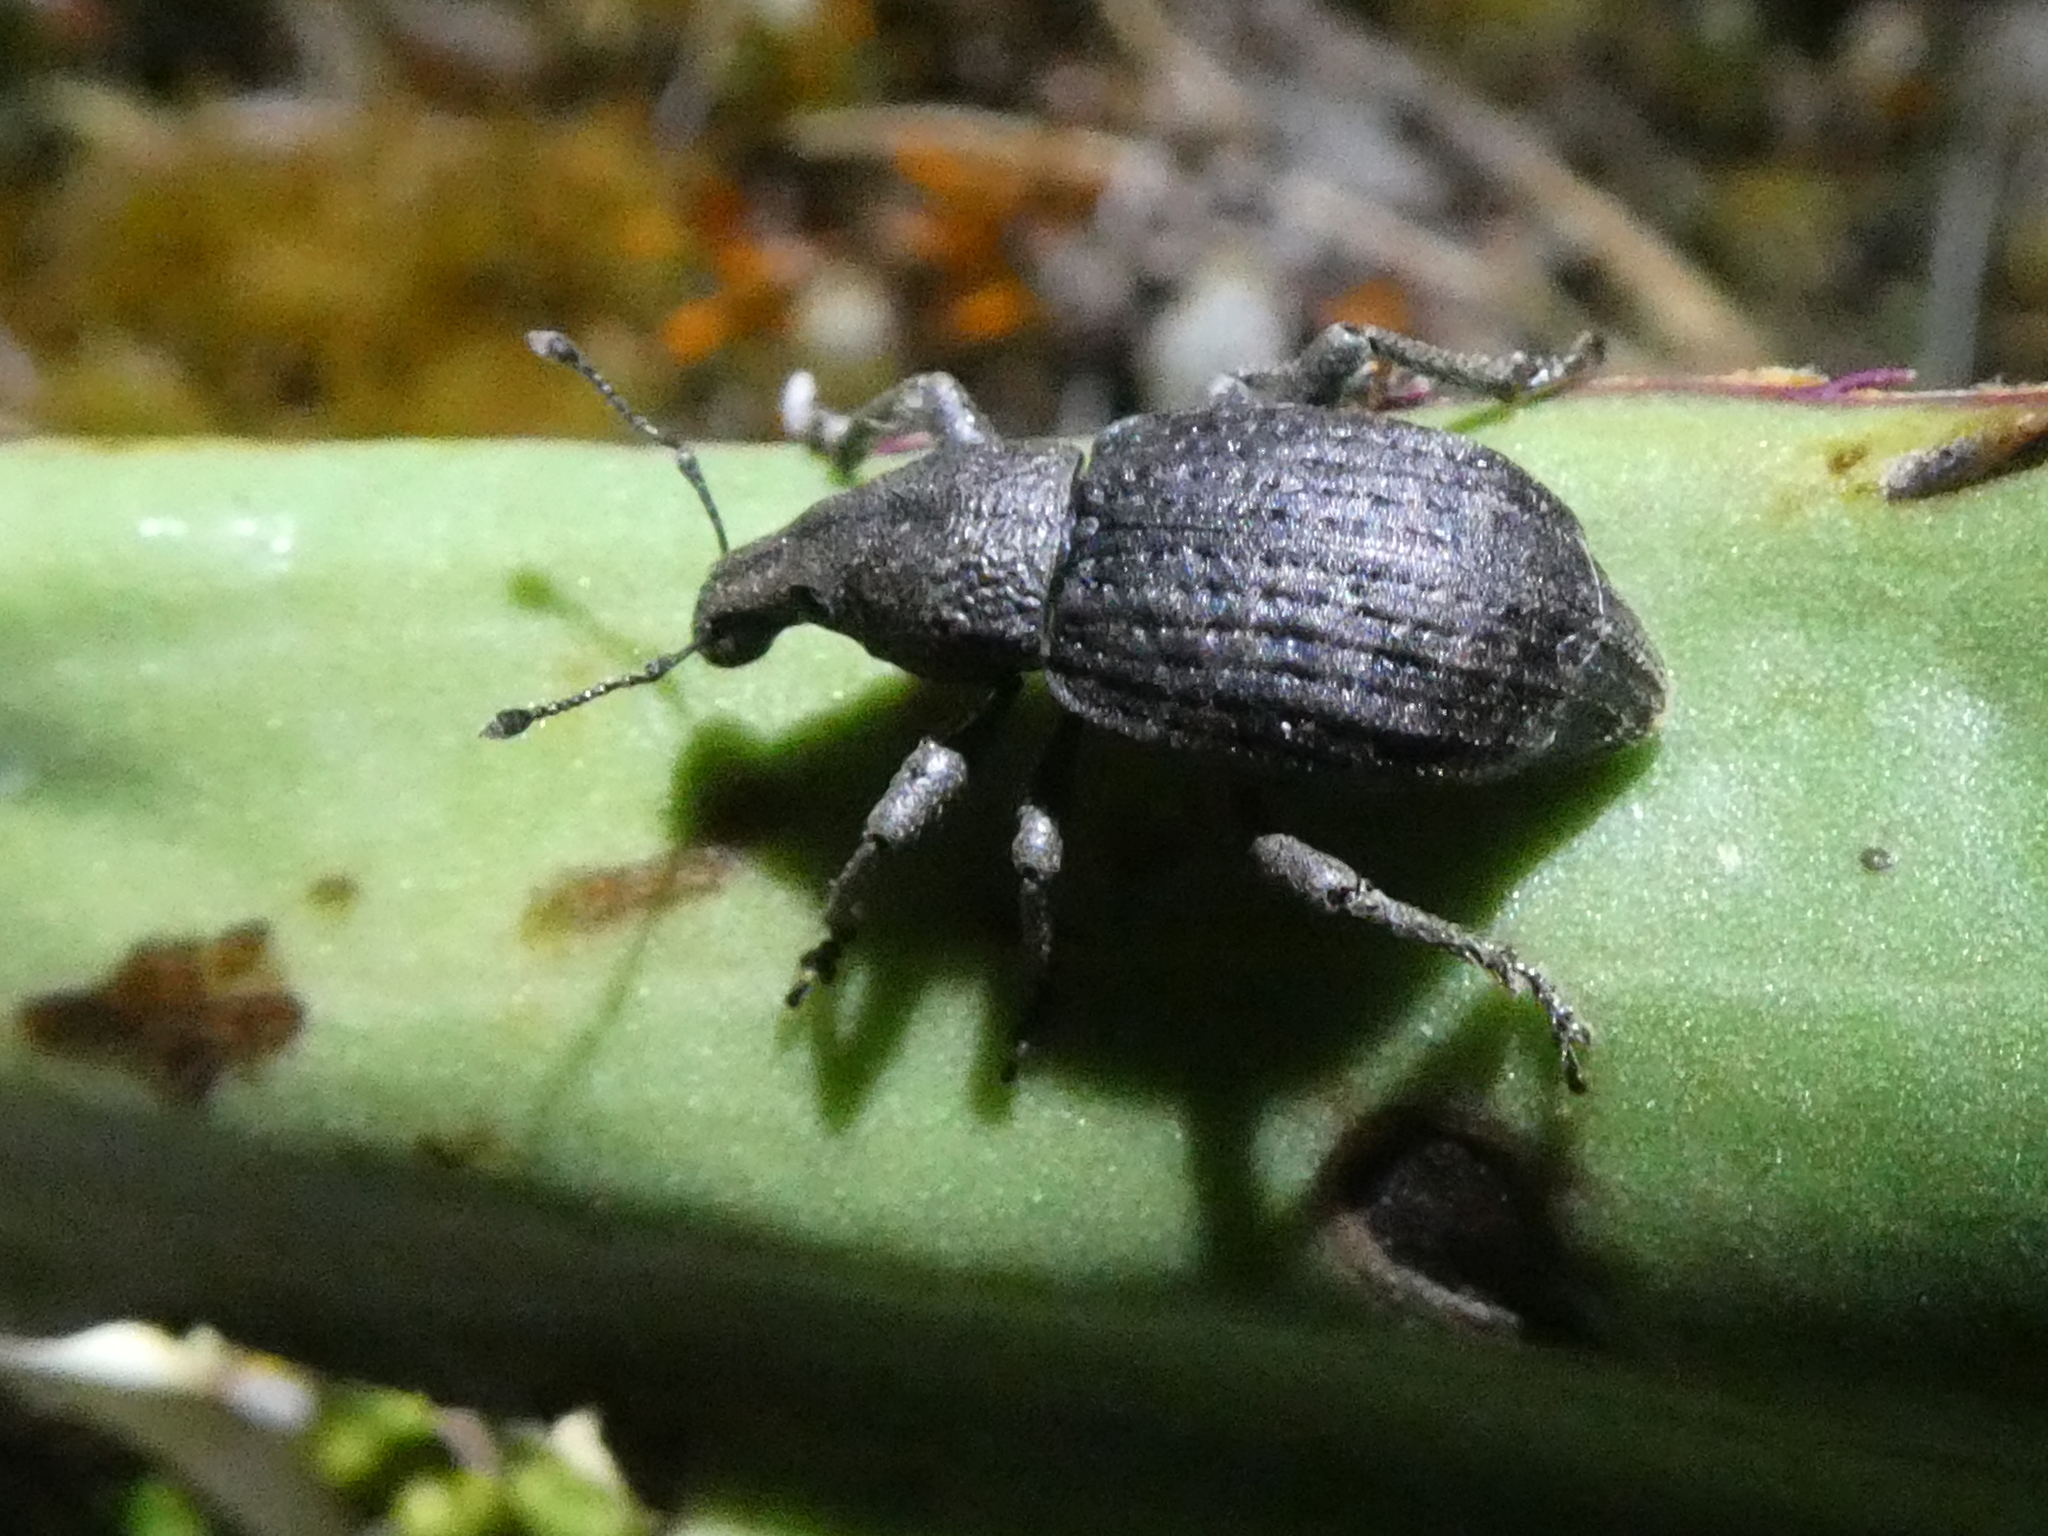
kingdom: Animalia
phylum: Arthropoda
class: Insecta
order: Coleoptera
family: Curculionidae
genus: Catoptes
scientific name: Catoptes funestus
